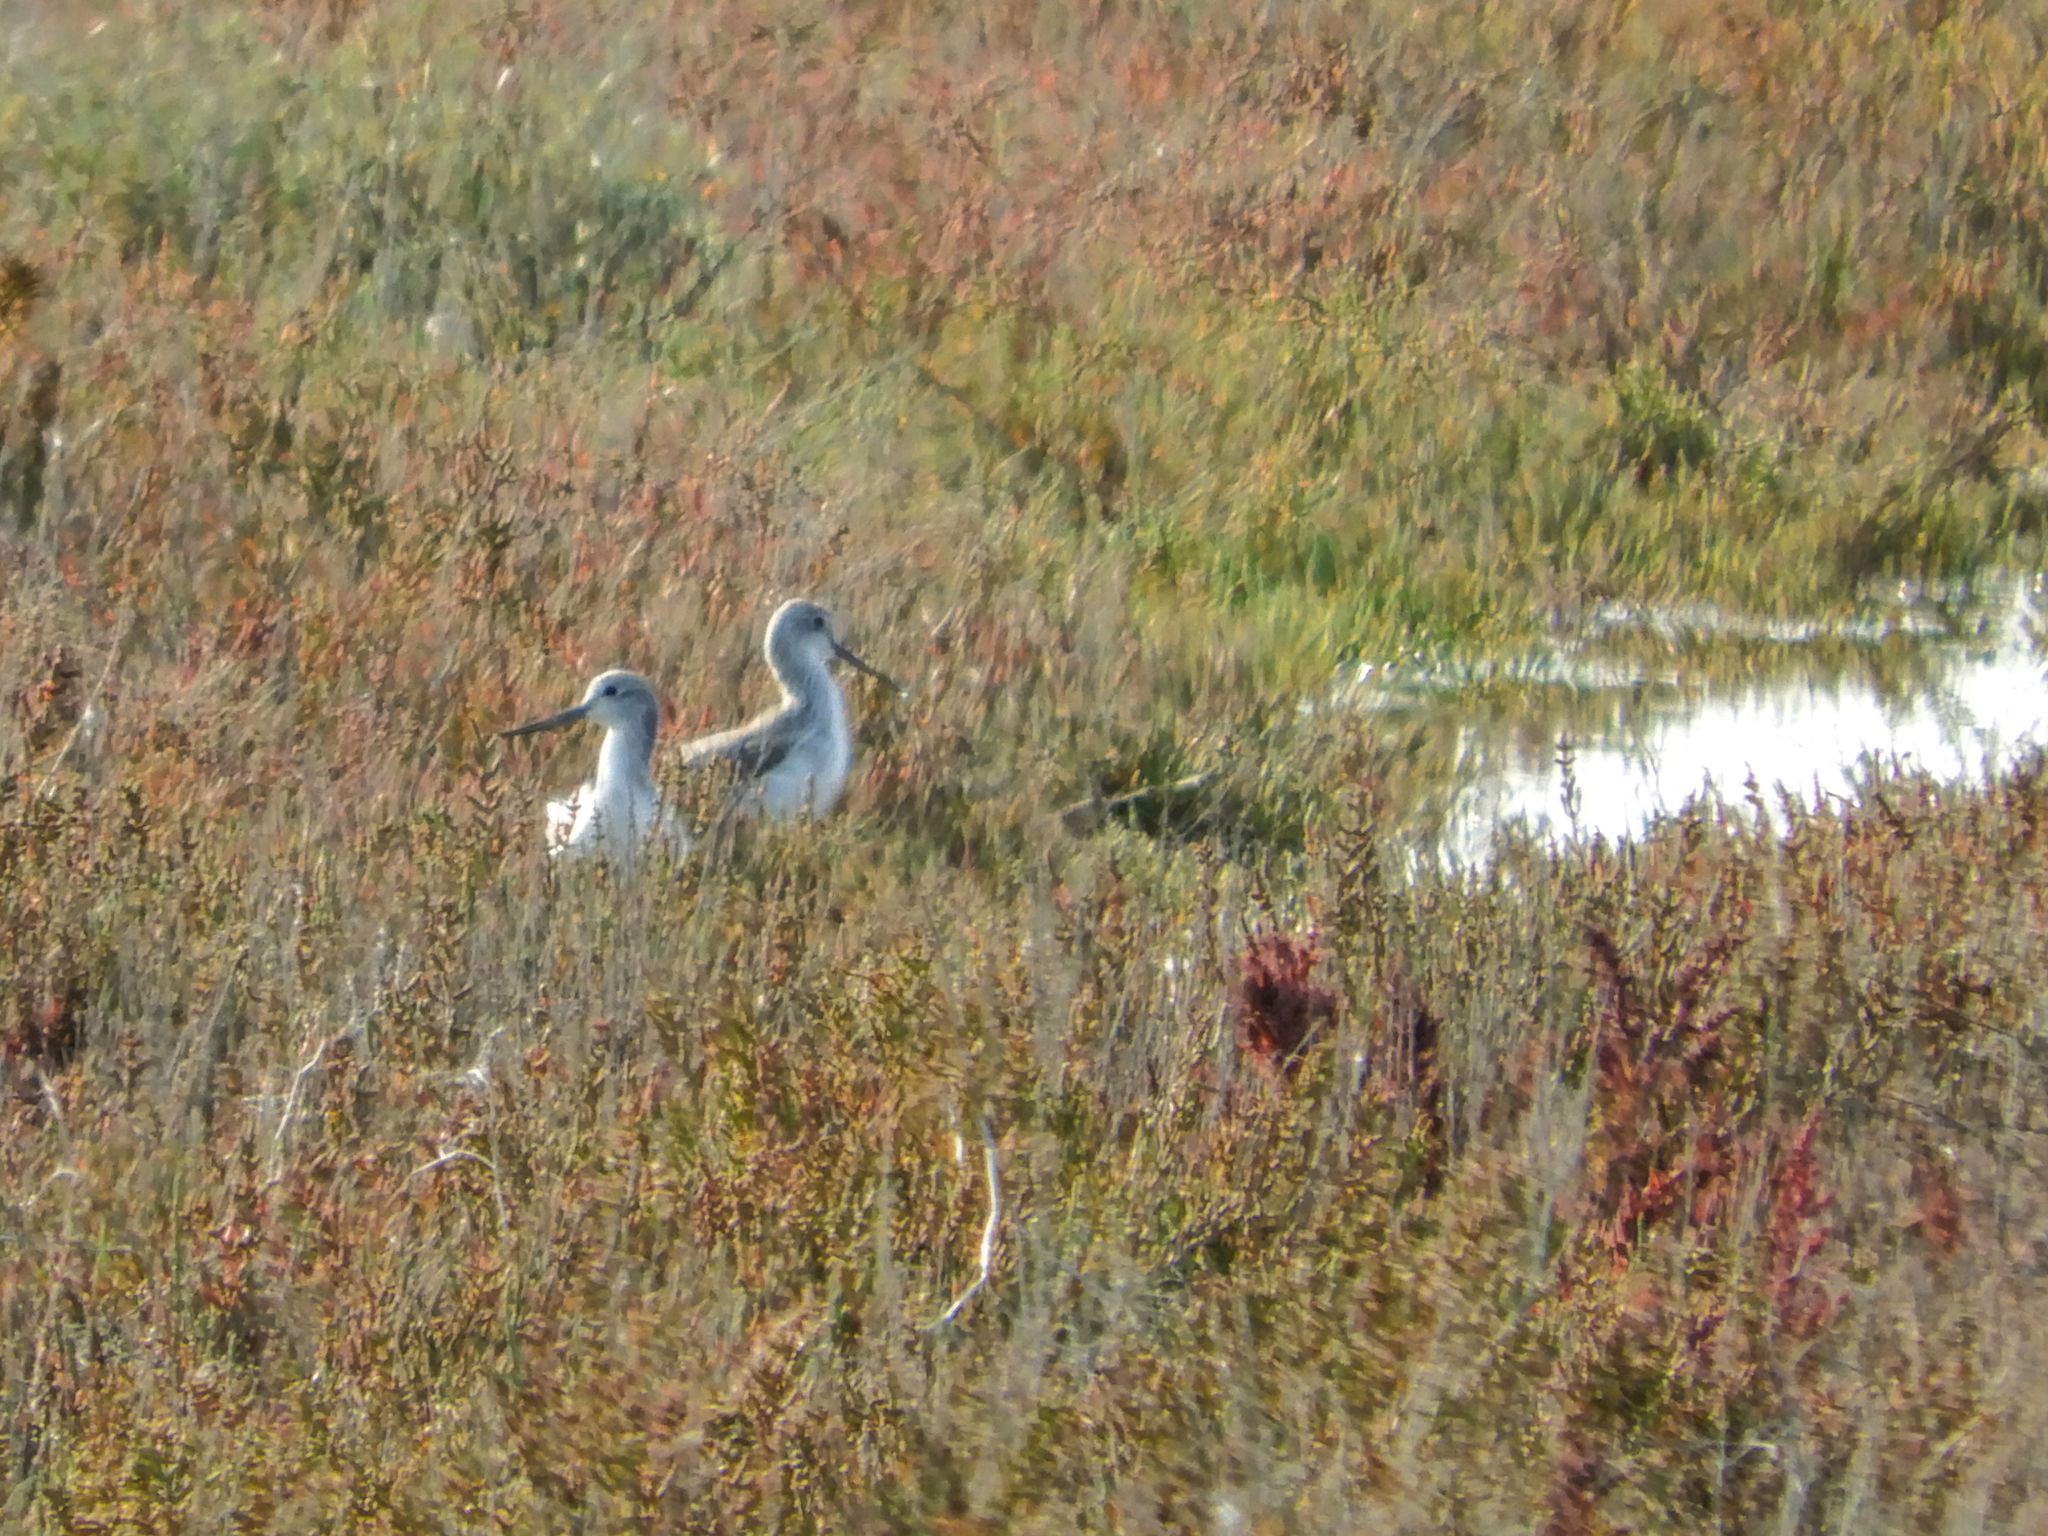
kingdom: Animalia
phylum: Chordata
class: Aves
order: Charadriiformes
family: Scolopacidae
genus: Tringa
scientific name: Tringa nebularia
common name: Common greenshank
